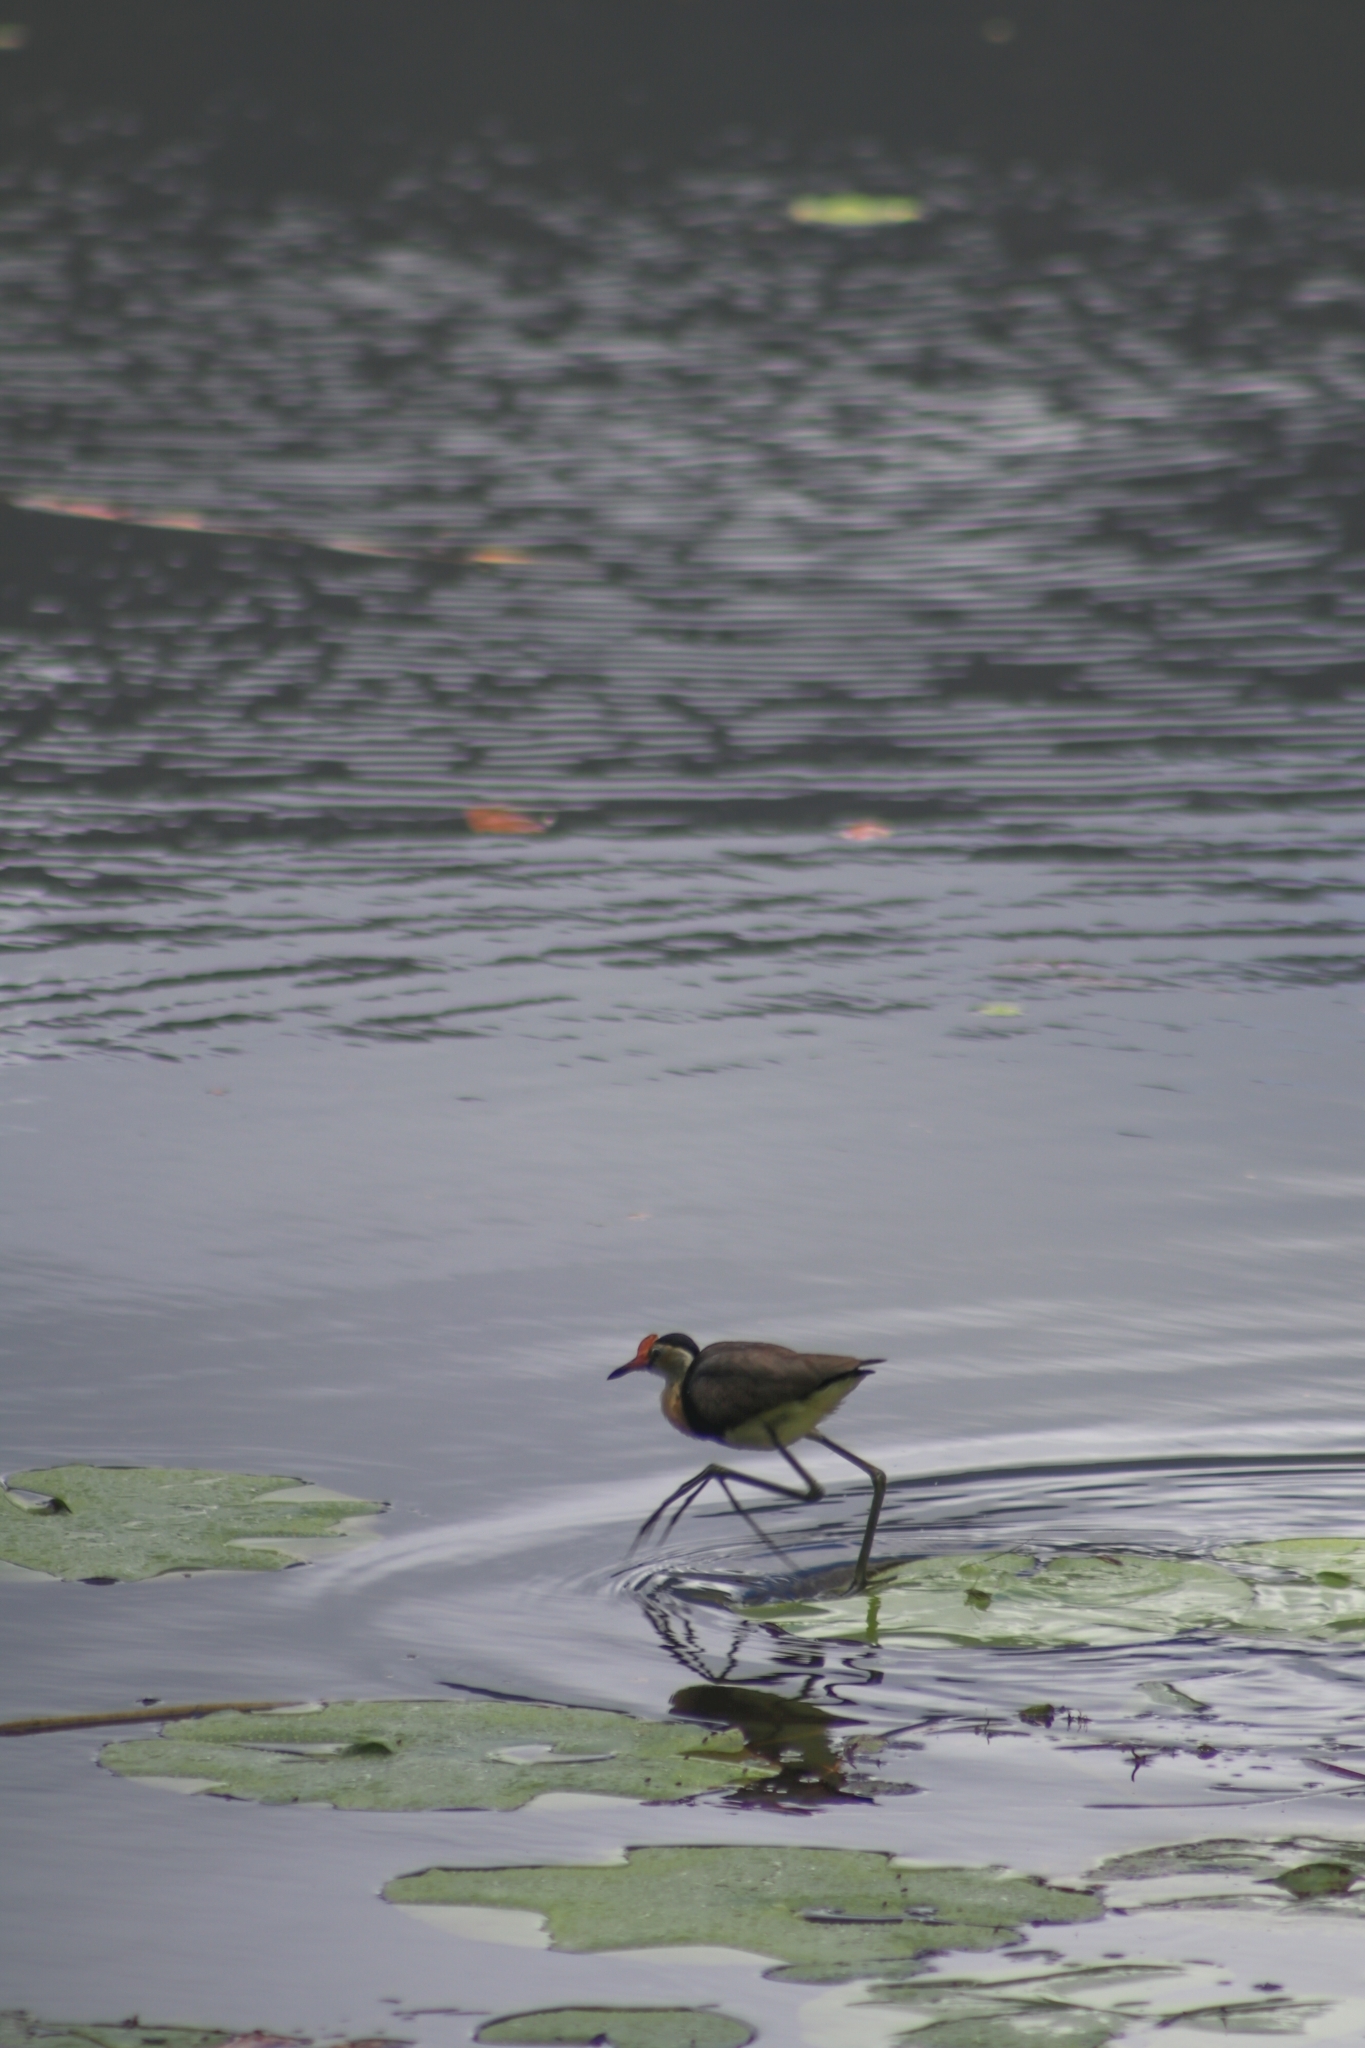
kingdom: Animalia
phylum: Chordata
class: Aves
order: Charadriiformes
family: Jacanidae
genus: Irediparra
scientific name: Irediparra gallinacea
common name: Comb-crested jacana
